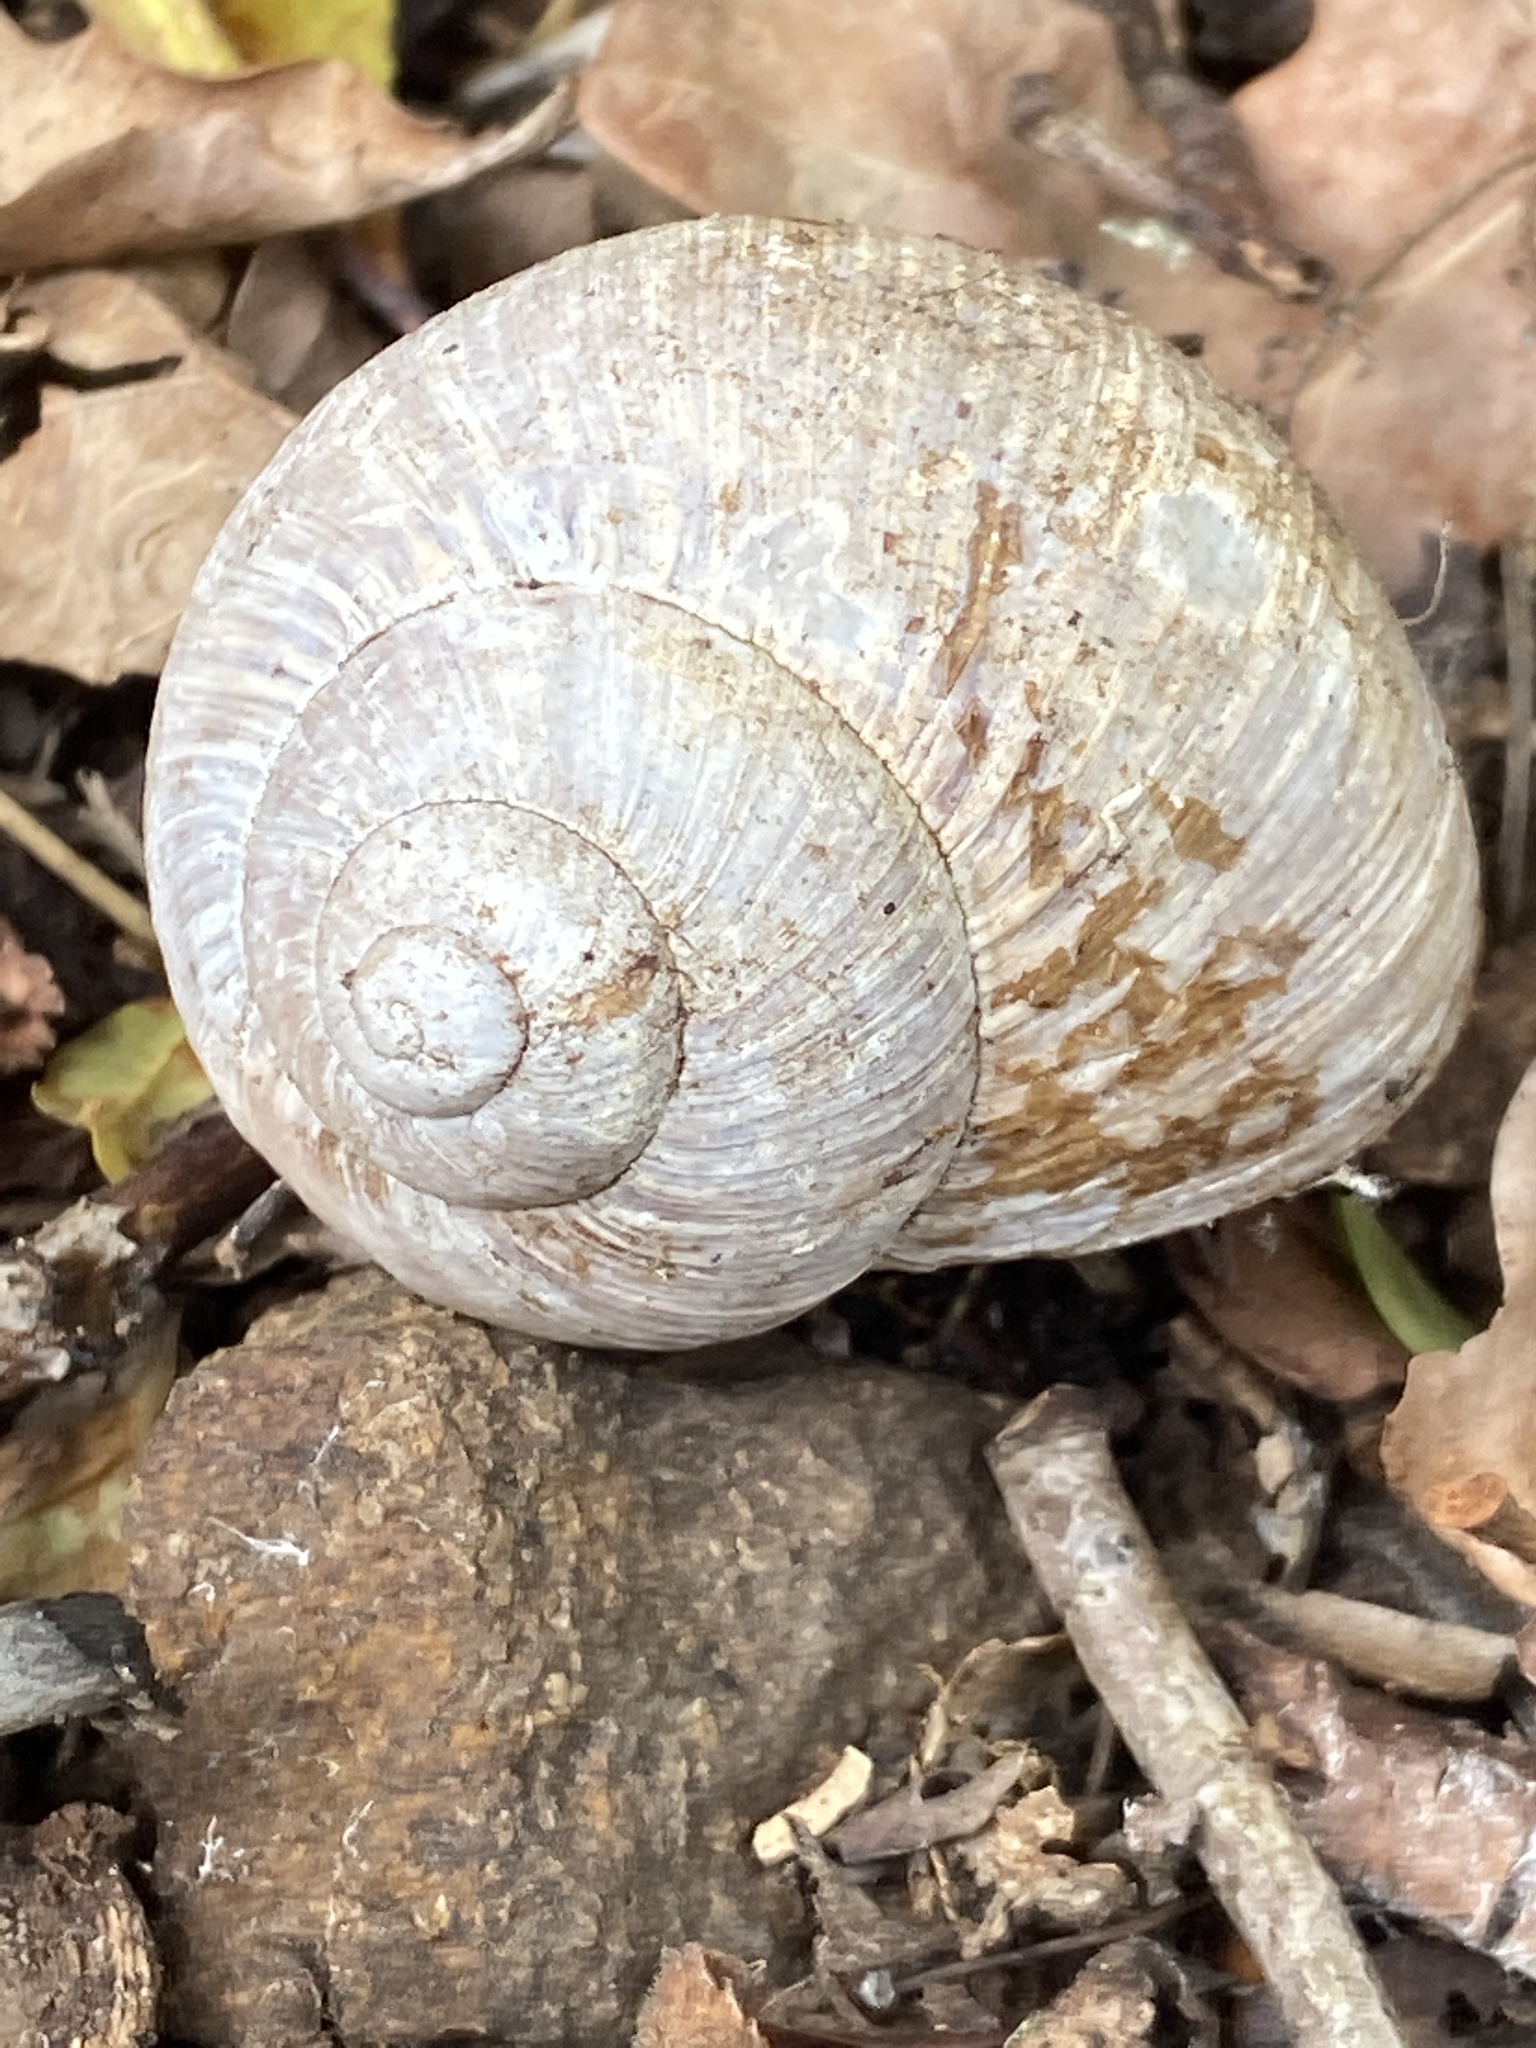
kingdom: Animalia
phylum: Mollusca
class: Gastropoda
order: Stylommatophora
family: Helicidae
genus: Helix
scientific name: Helix pomatia
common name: Roman snail
